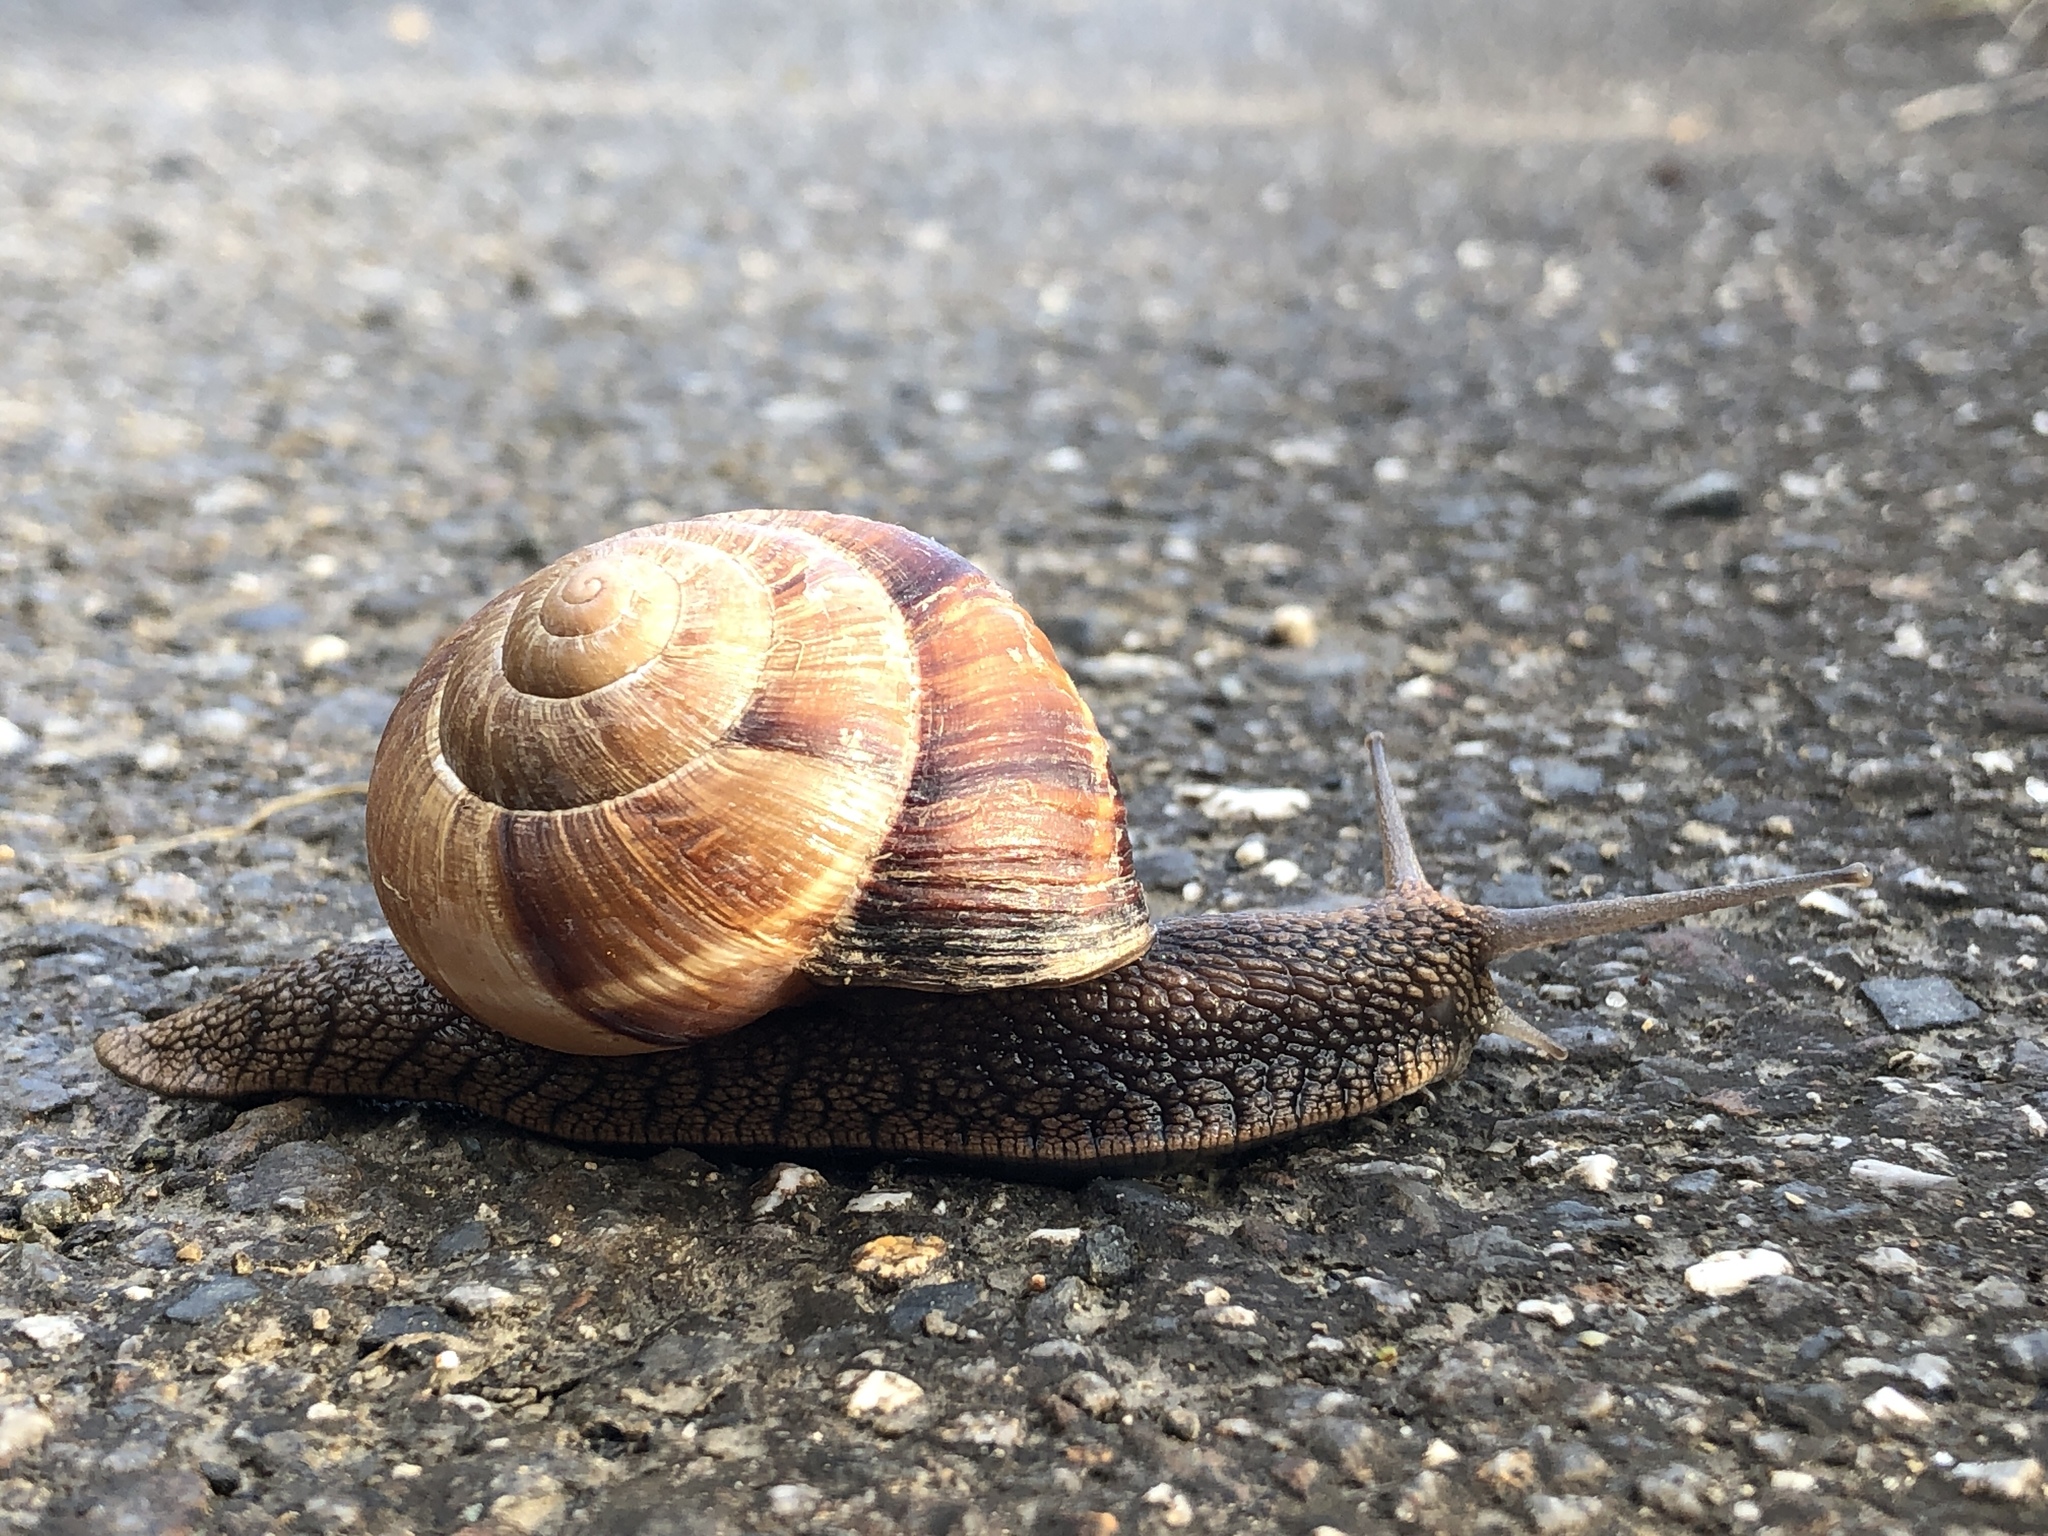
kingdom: Animalia
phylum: Mollusca
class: Gastropoda
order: Stylommatophora
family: Helicidae
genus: Helix
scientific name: Helix lucorum
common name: Turkish snail
